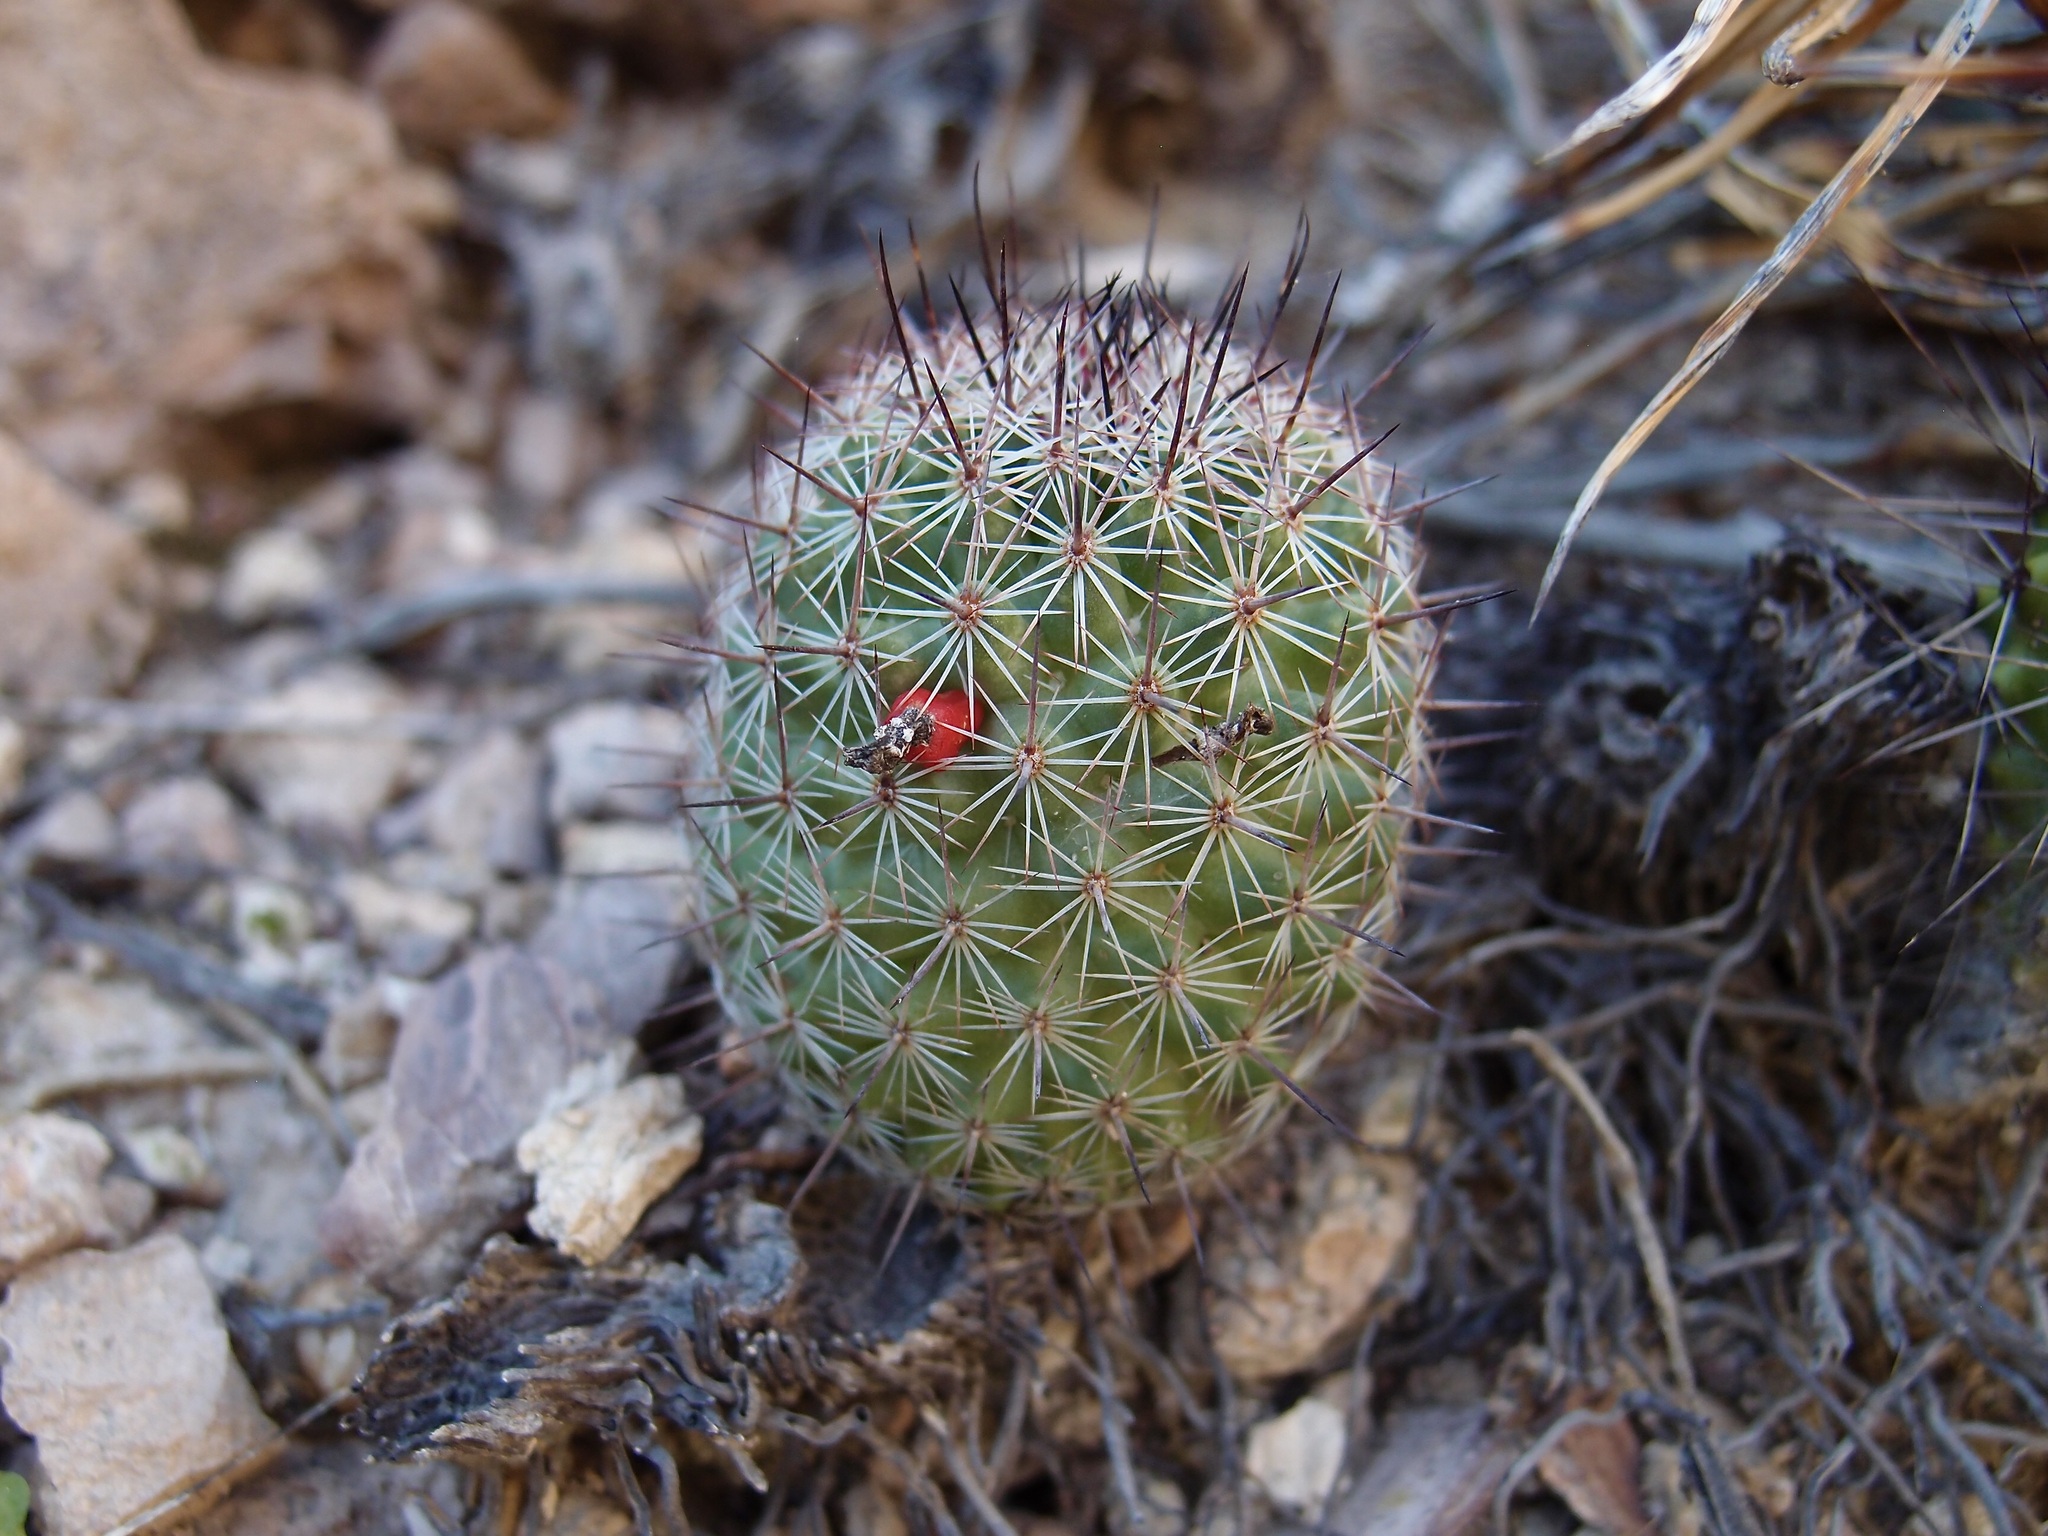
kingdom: Plantae
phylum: Tracheophyta
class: Magnoliopsida
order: Caryophyllales
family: Cactaceae
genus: Cochemiea
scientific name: Cochemiea sheldonii
